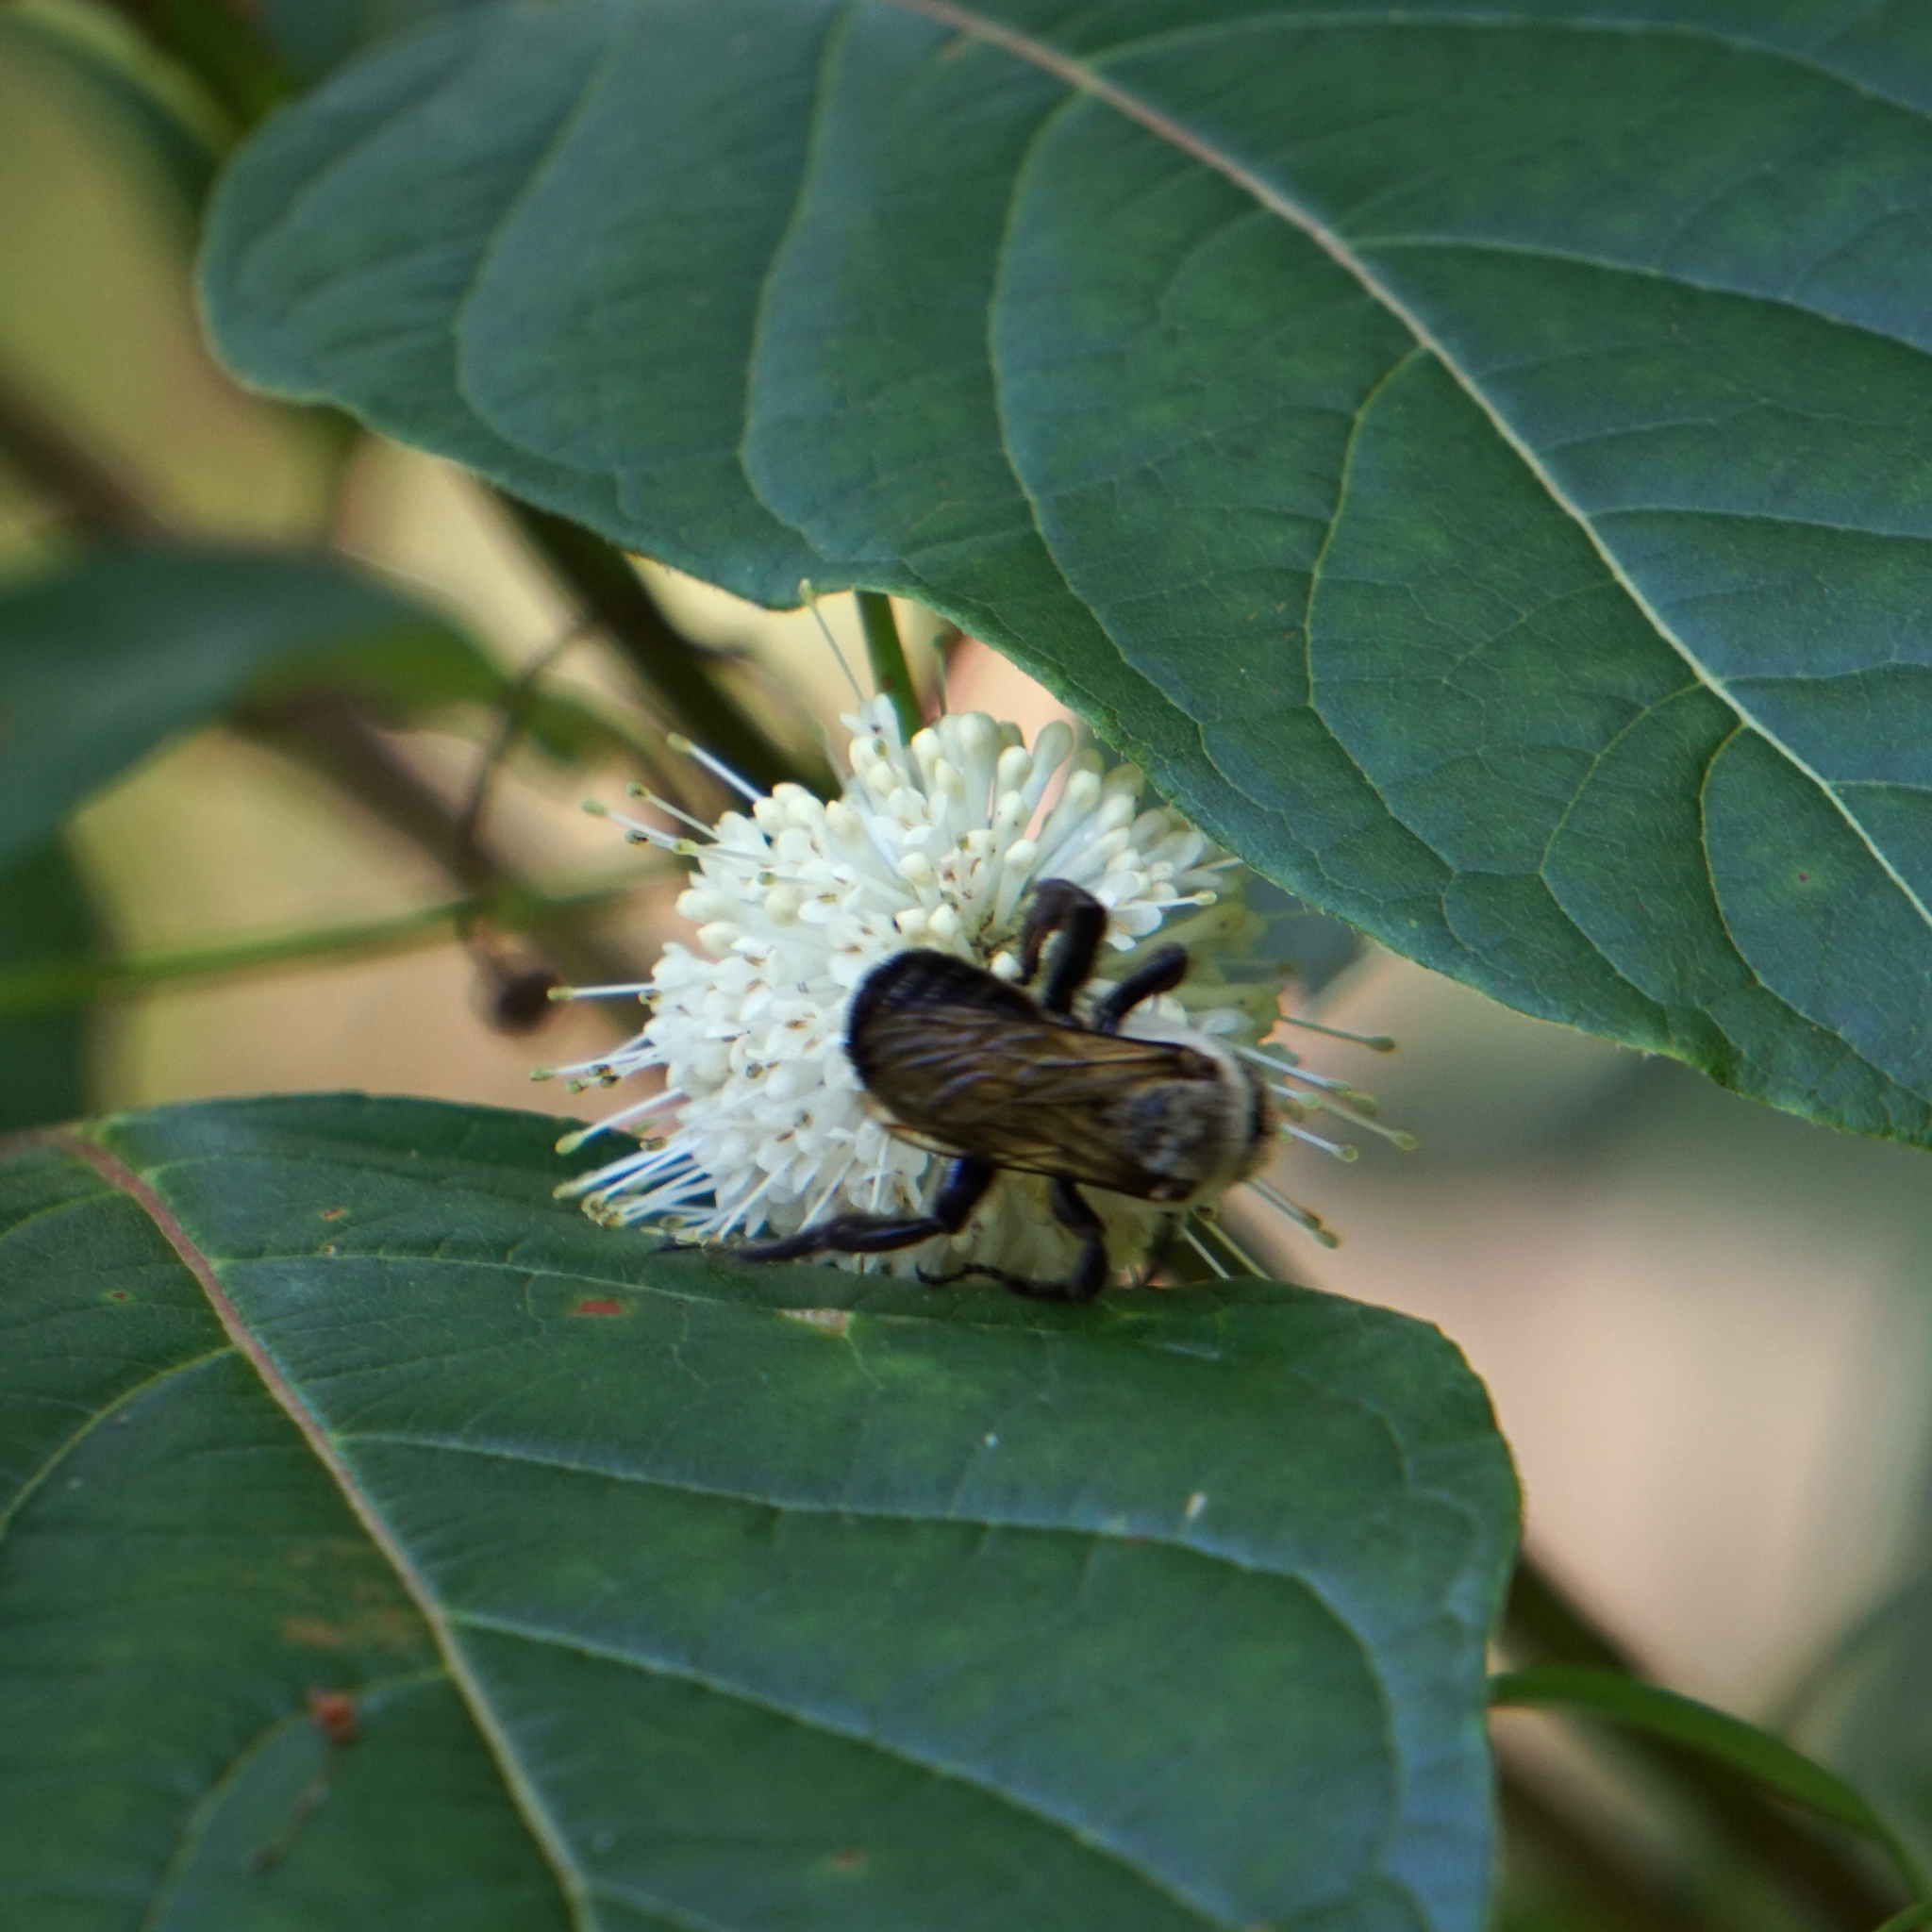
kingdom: Animalia
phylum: Arthropoda
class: Insecta
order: Hymenoptera
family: Apidae
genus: Ptilothrix
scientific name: Ptilothrix bombiformis
